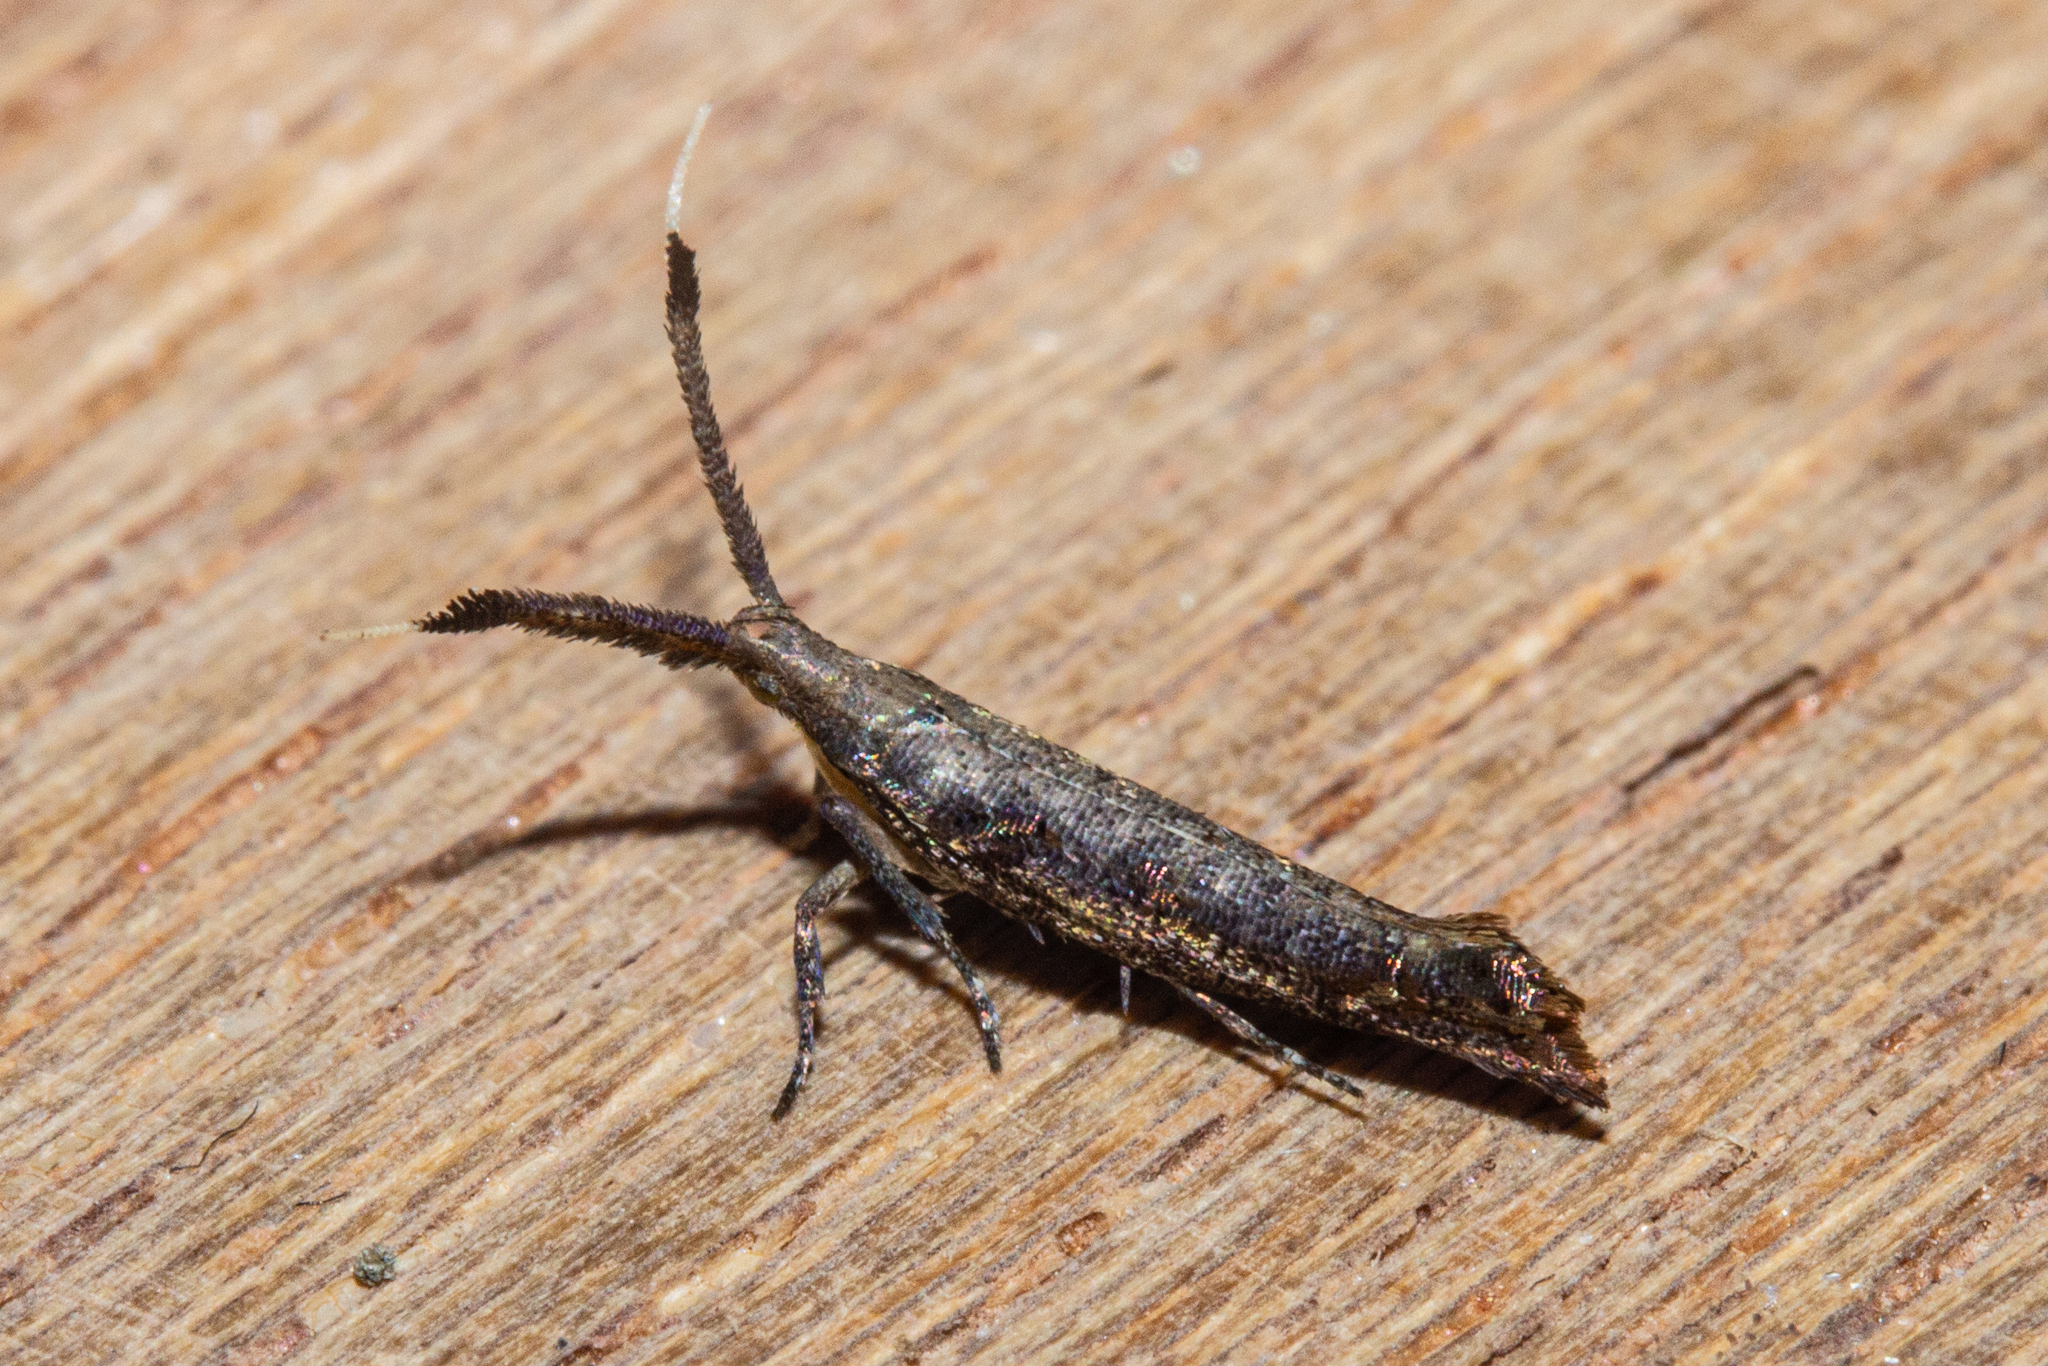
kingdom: Animalia
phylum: Arthropoda
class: Insecta
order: Lepidoptera
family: Plutellidae
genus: Protosynaema
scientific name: Protosynaema steropucha
